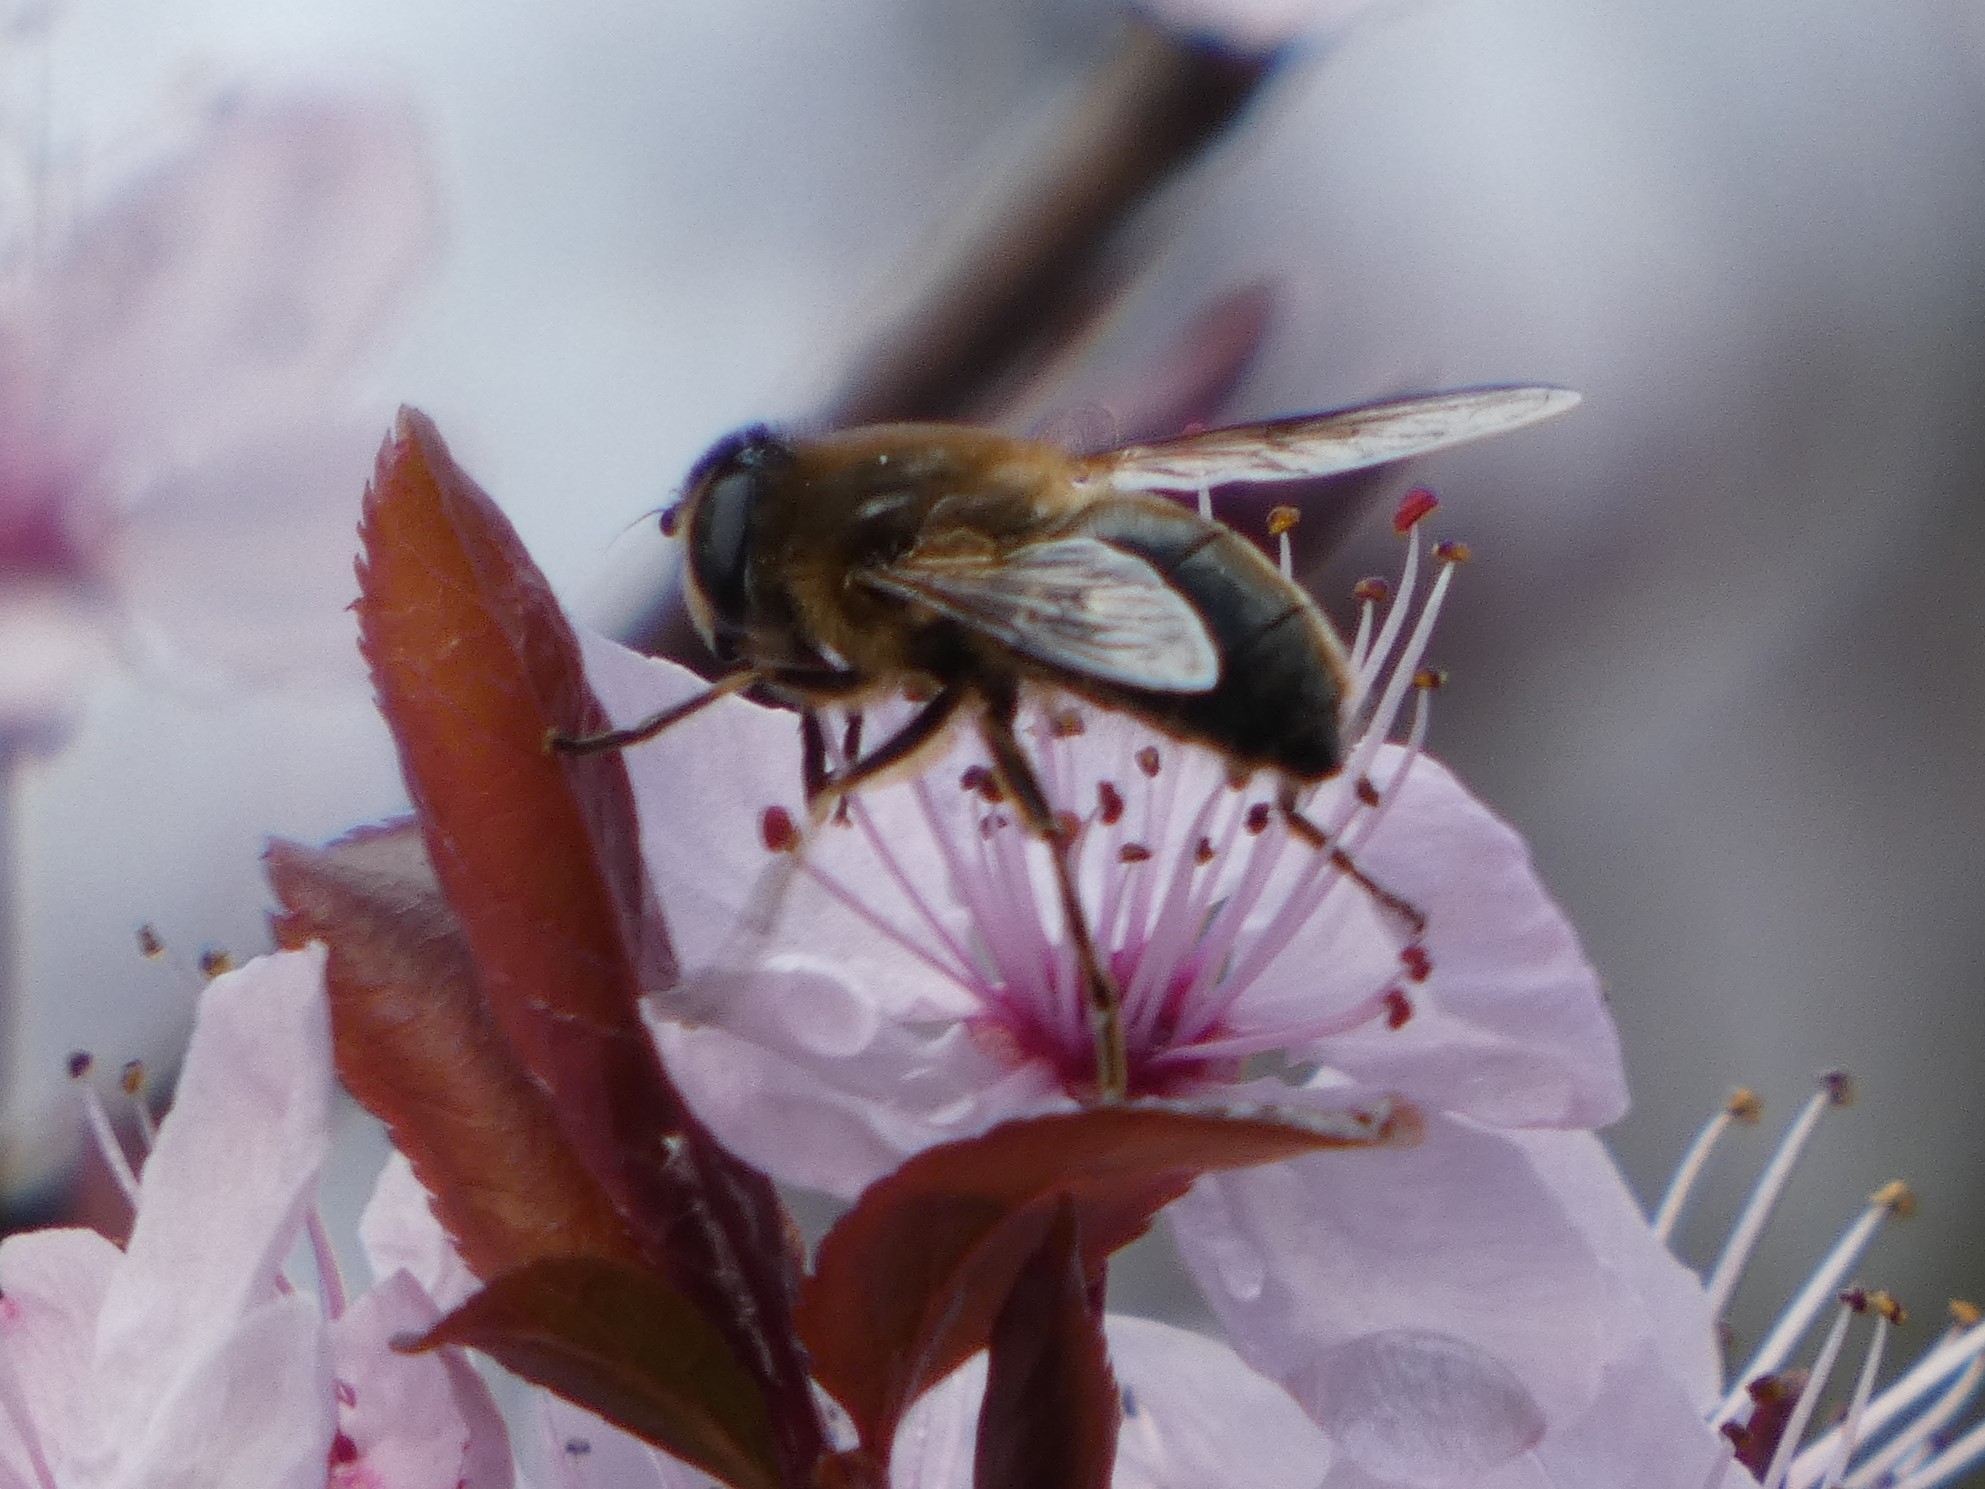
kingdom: Animalia
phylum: Arthropoda
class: Insecta
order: Diptera
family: Syrphidae
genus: Eristalis
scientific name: Eristalis tenax
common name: Drone fly
